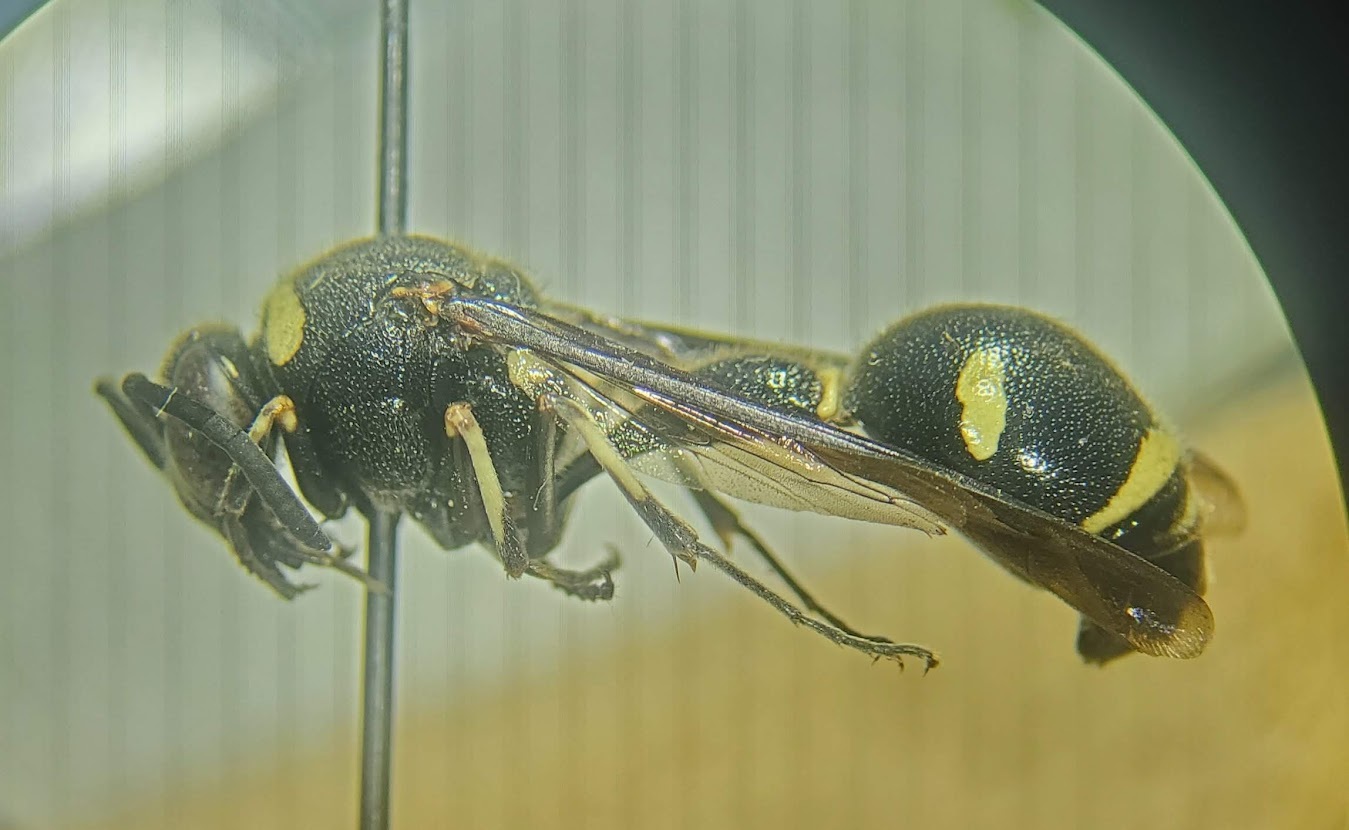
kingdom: Animalia
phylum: Arthropoda
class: Insecta
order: Hymenoptera
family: Vespidae
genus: Eumenes
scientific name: Eumenes fraternus
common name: Fraternal potter wasp
